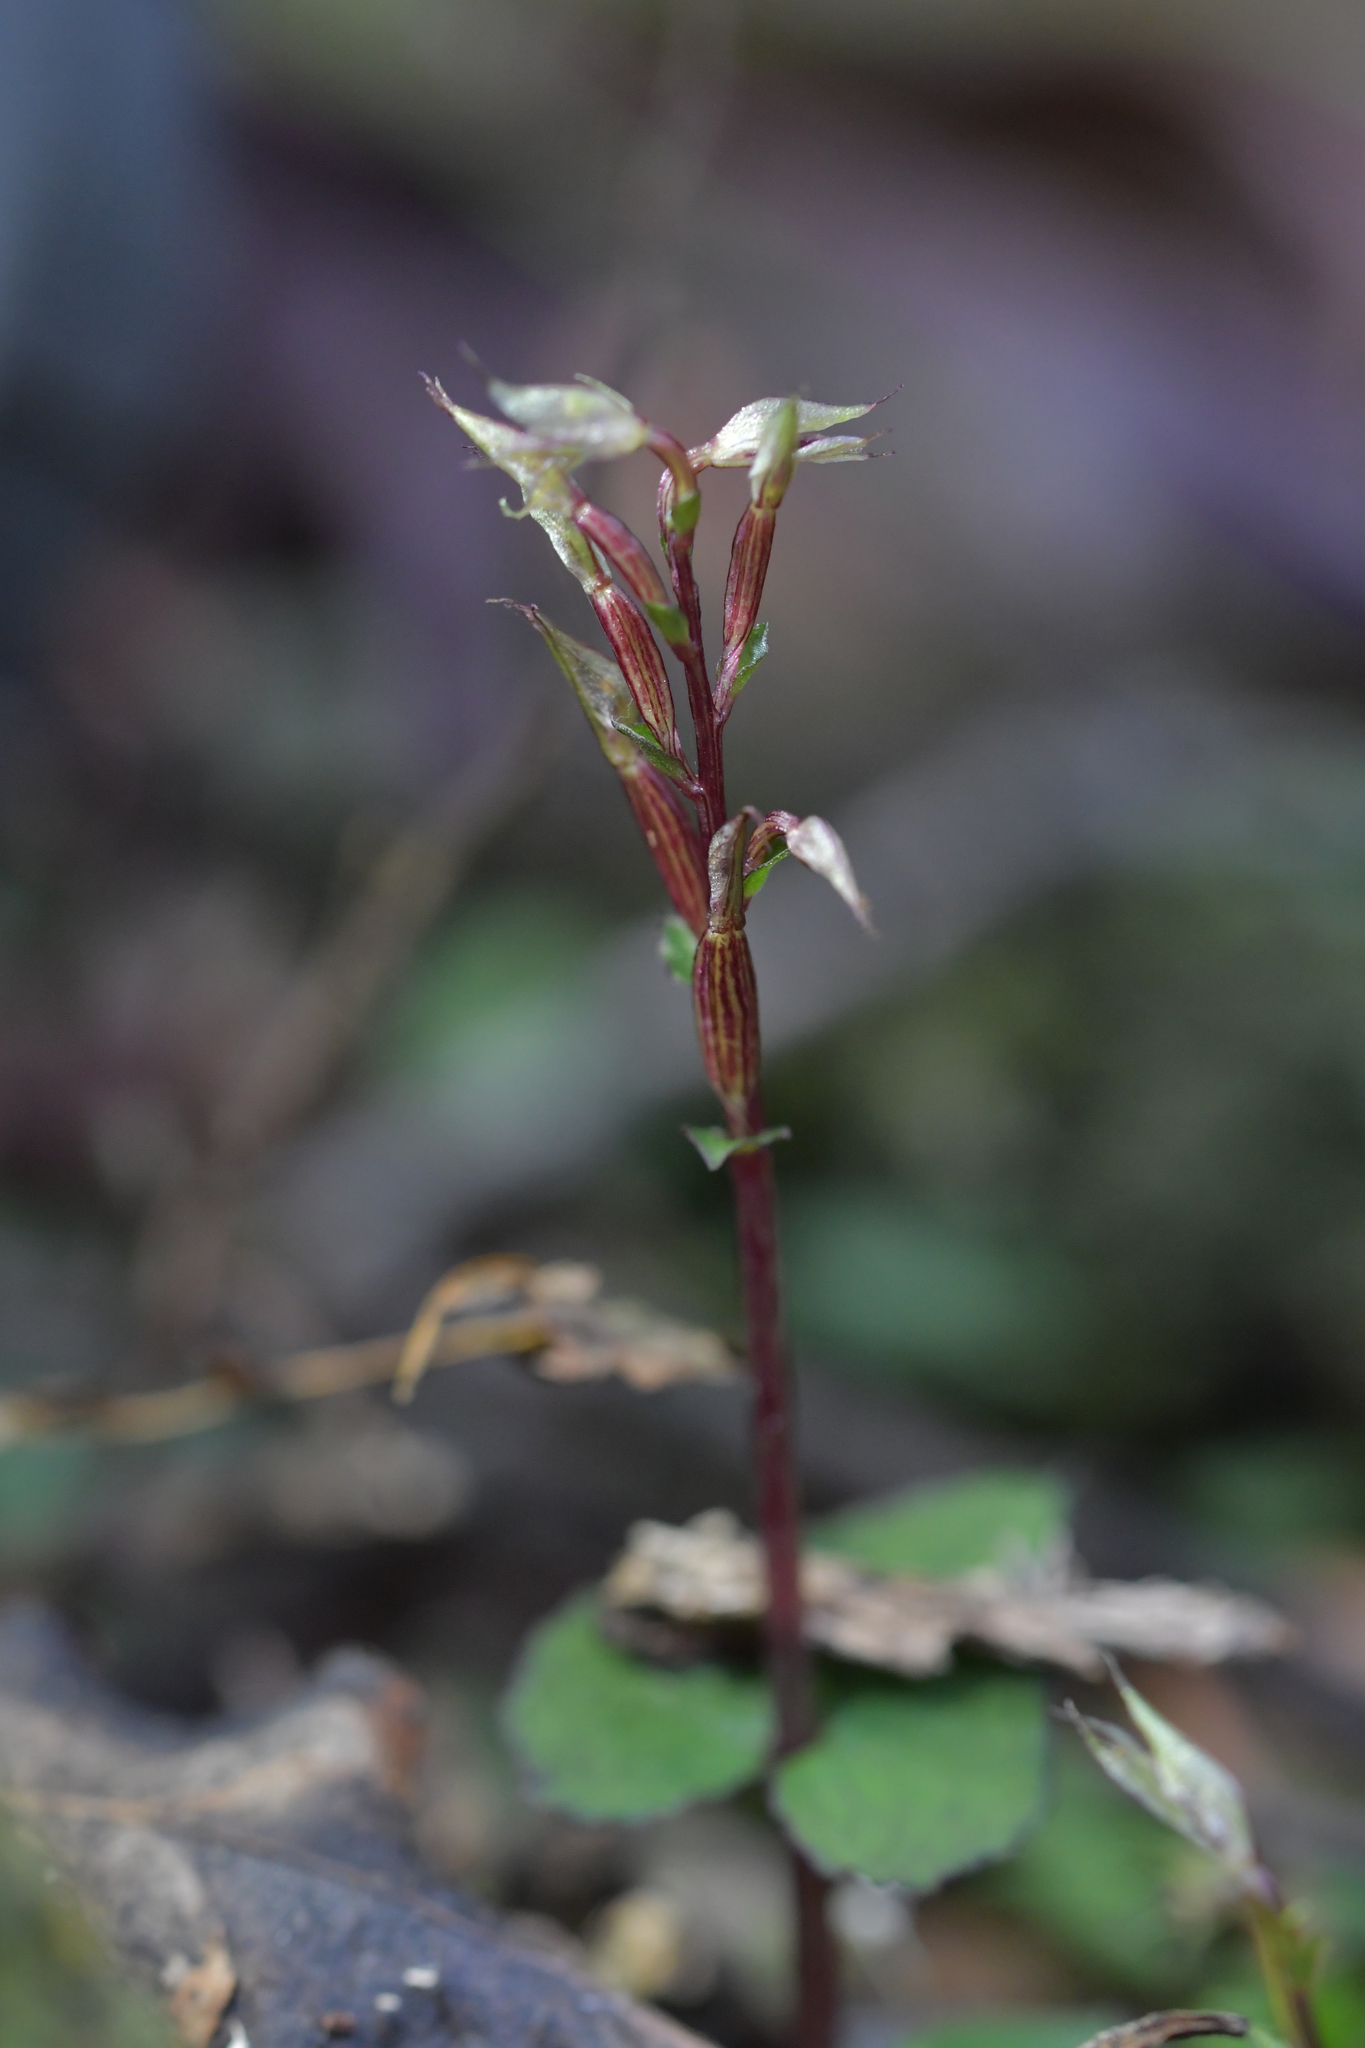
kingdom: Plantae
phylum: Tracheophyta
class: Liliopsida
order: Asparagales
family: Orchidaceae
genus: Acianthus
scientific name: Acianthus sinclairii
